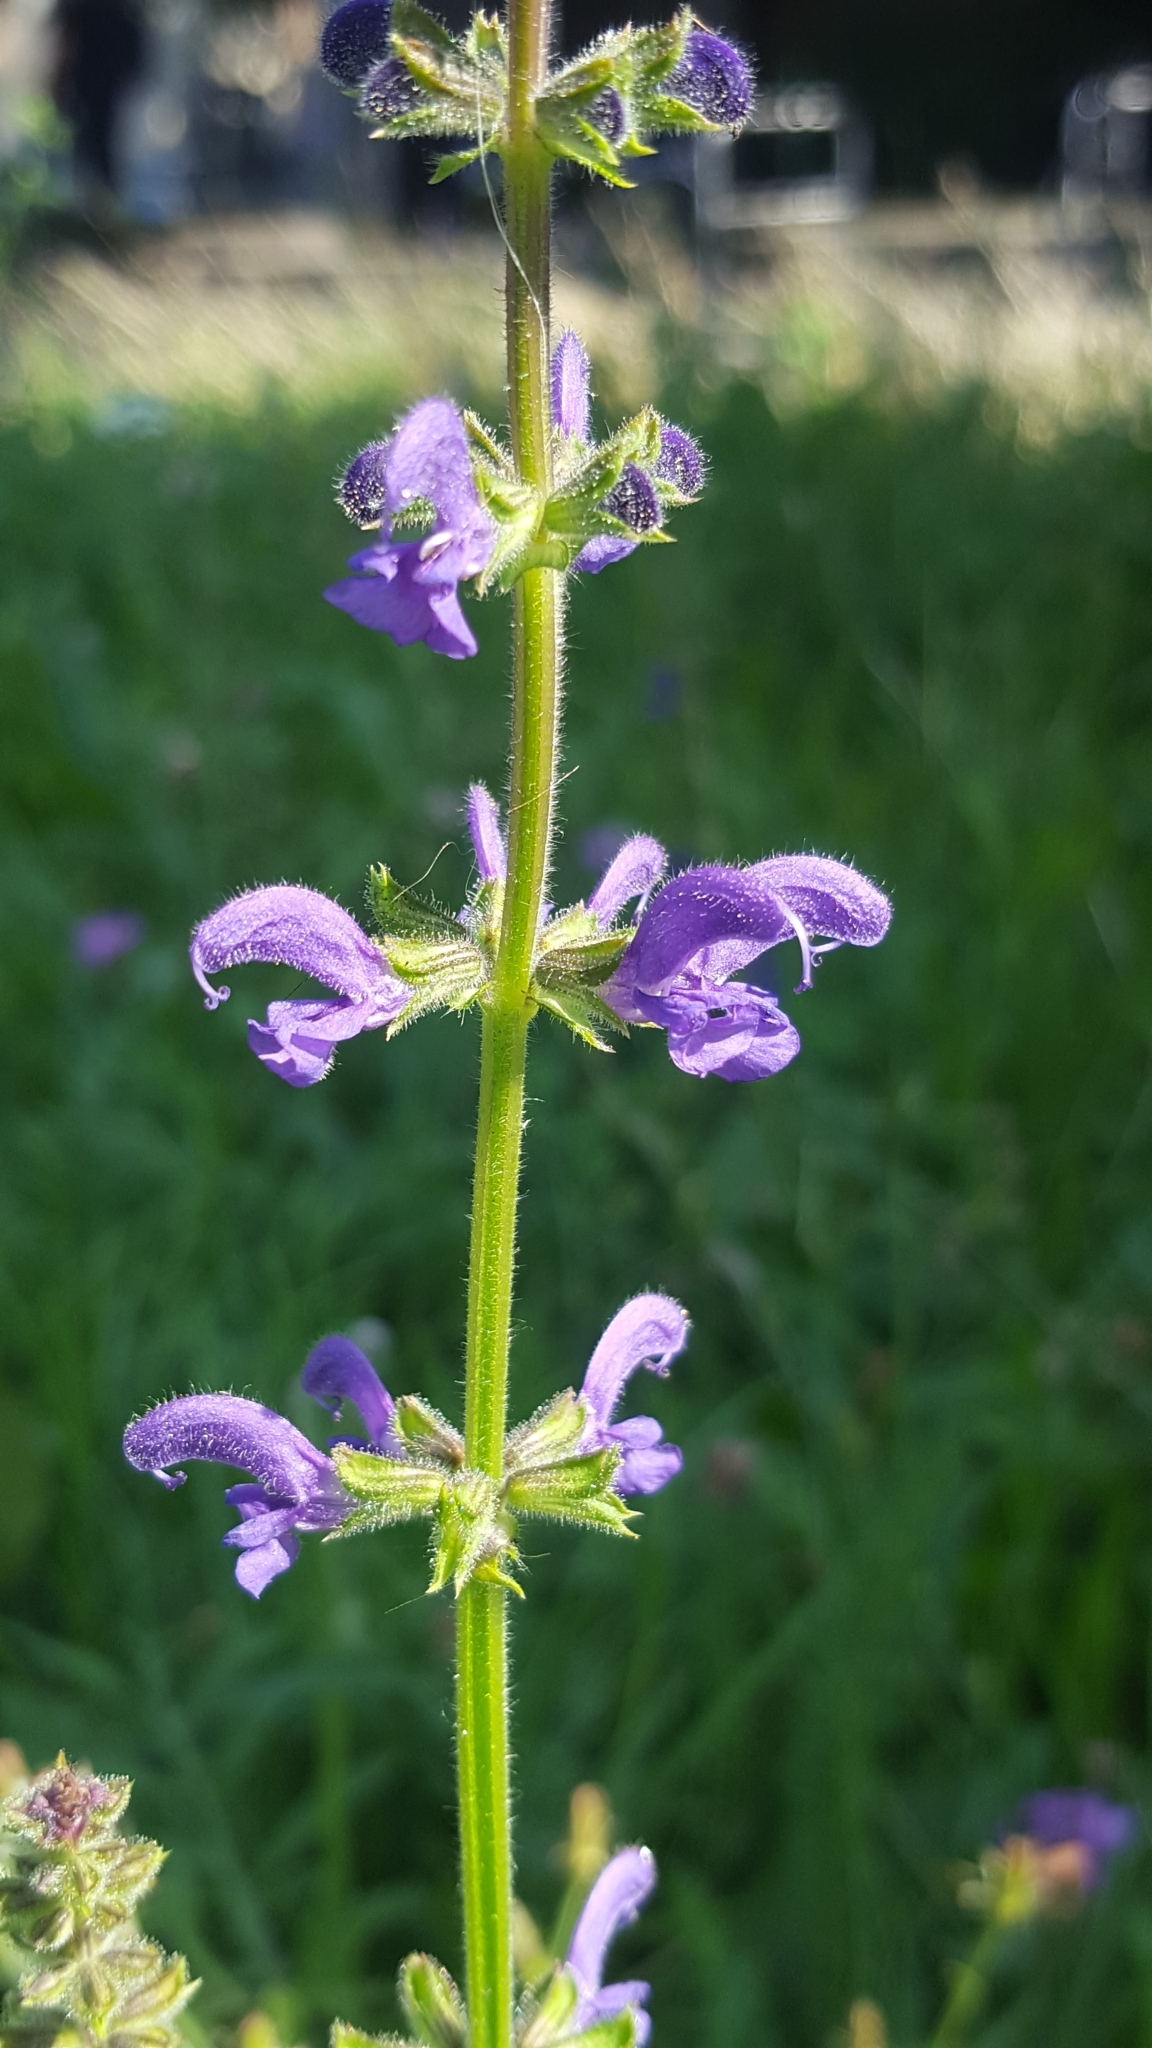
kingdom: Plantae
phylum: Tracheophyta
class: Magnoliopsida
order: Lamiales
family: Lamiaceae
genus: Salvia
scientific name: Salvia pratensis
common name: Meadow sage
